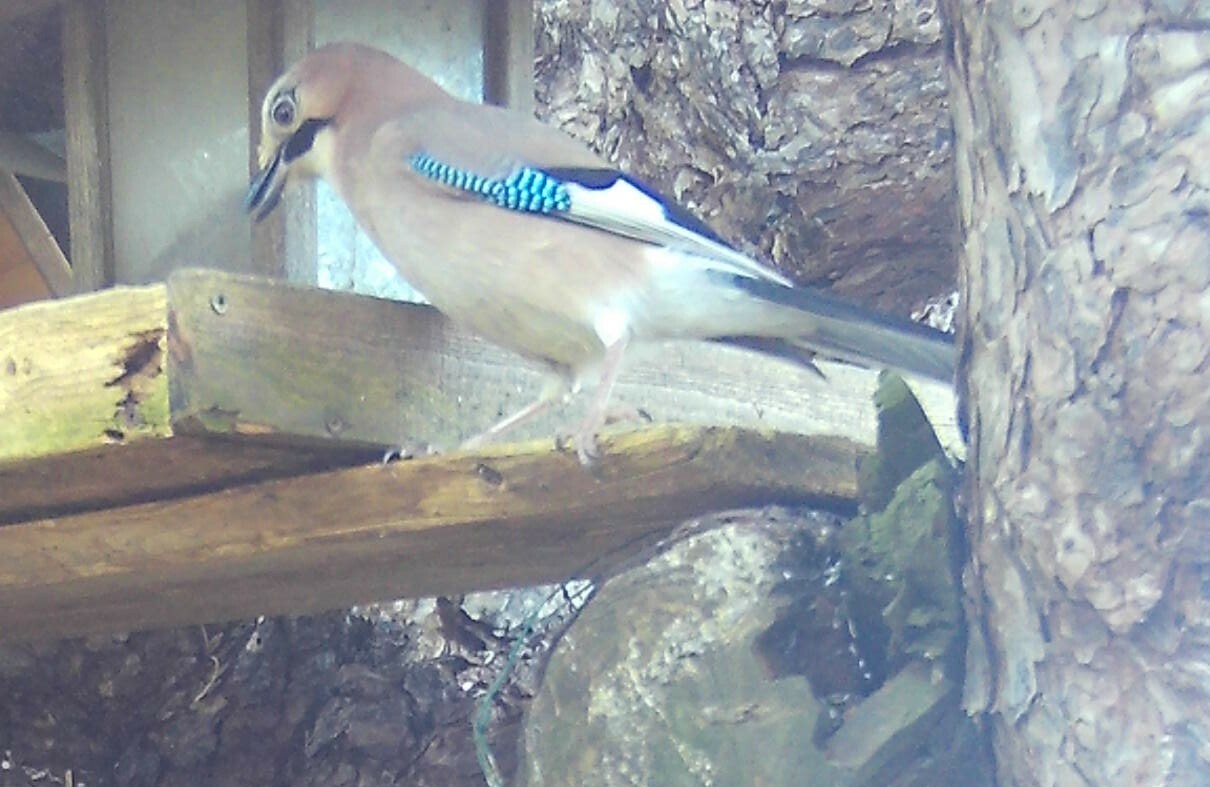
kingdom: Animalia
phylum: Chordata
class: Aves
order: Passeriformes
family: Corvidae
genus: Garrulus
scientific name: Garrulus glandarius
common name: Eurasian jay
